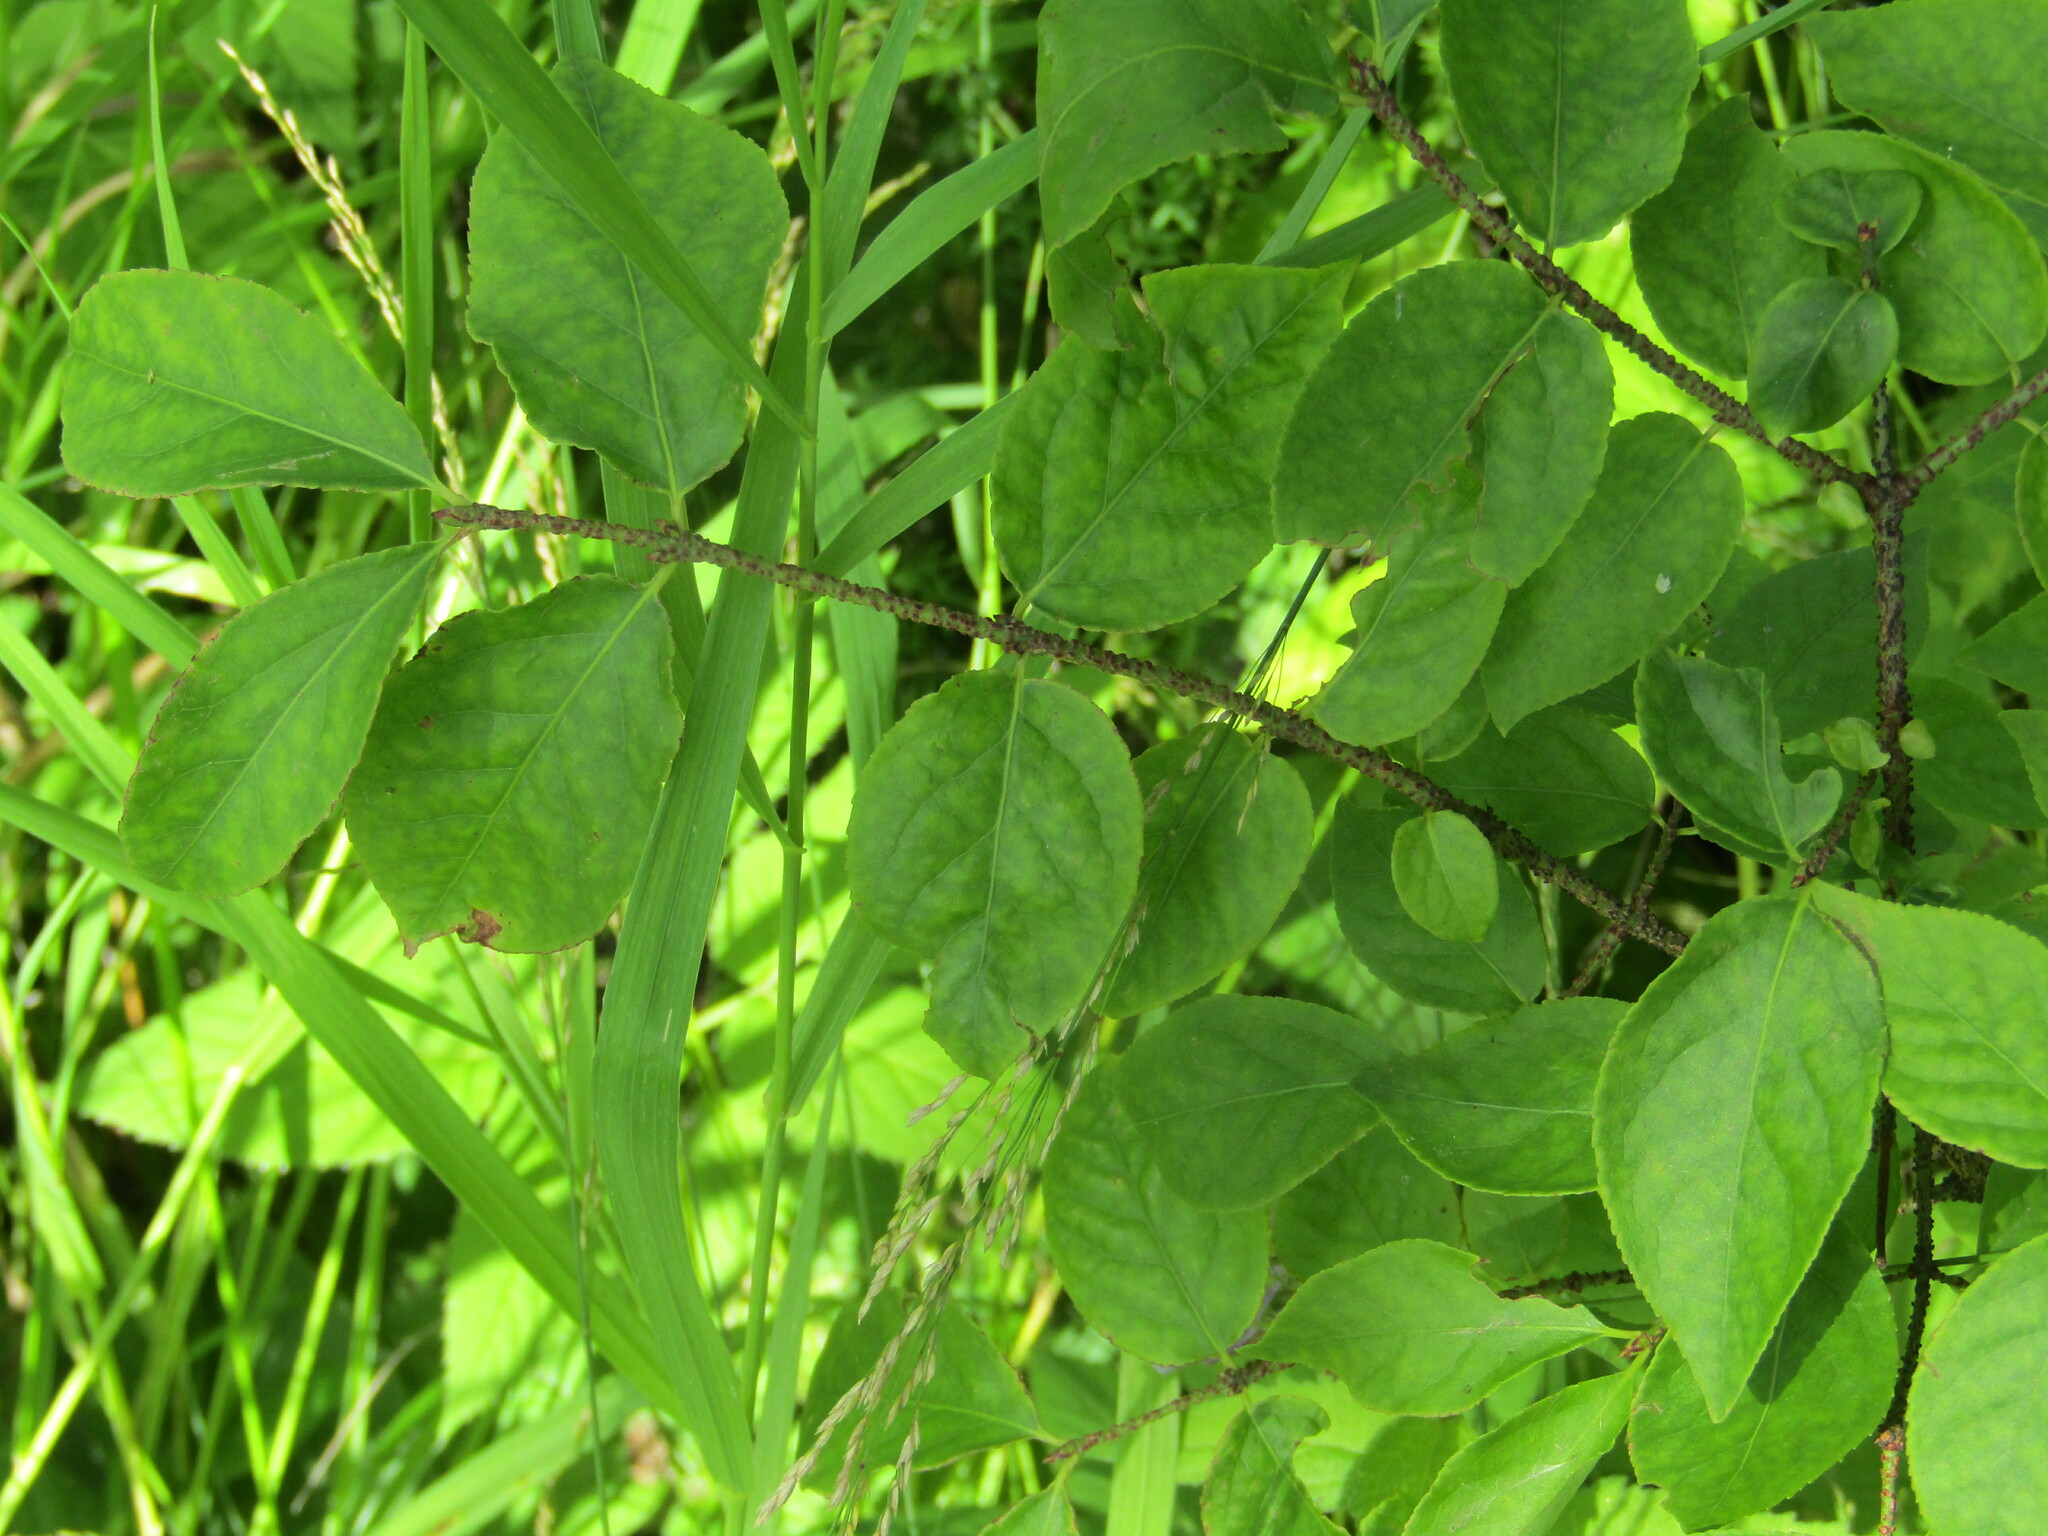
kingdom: Plantae
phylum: Tracheophyta
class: Magnoliopsida
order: Celastrales
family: Celastraceae
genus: Euonymus
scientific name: Euonymus verrucosus
